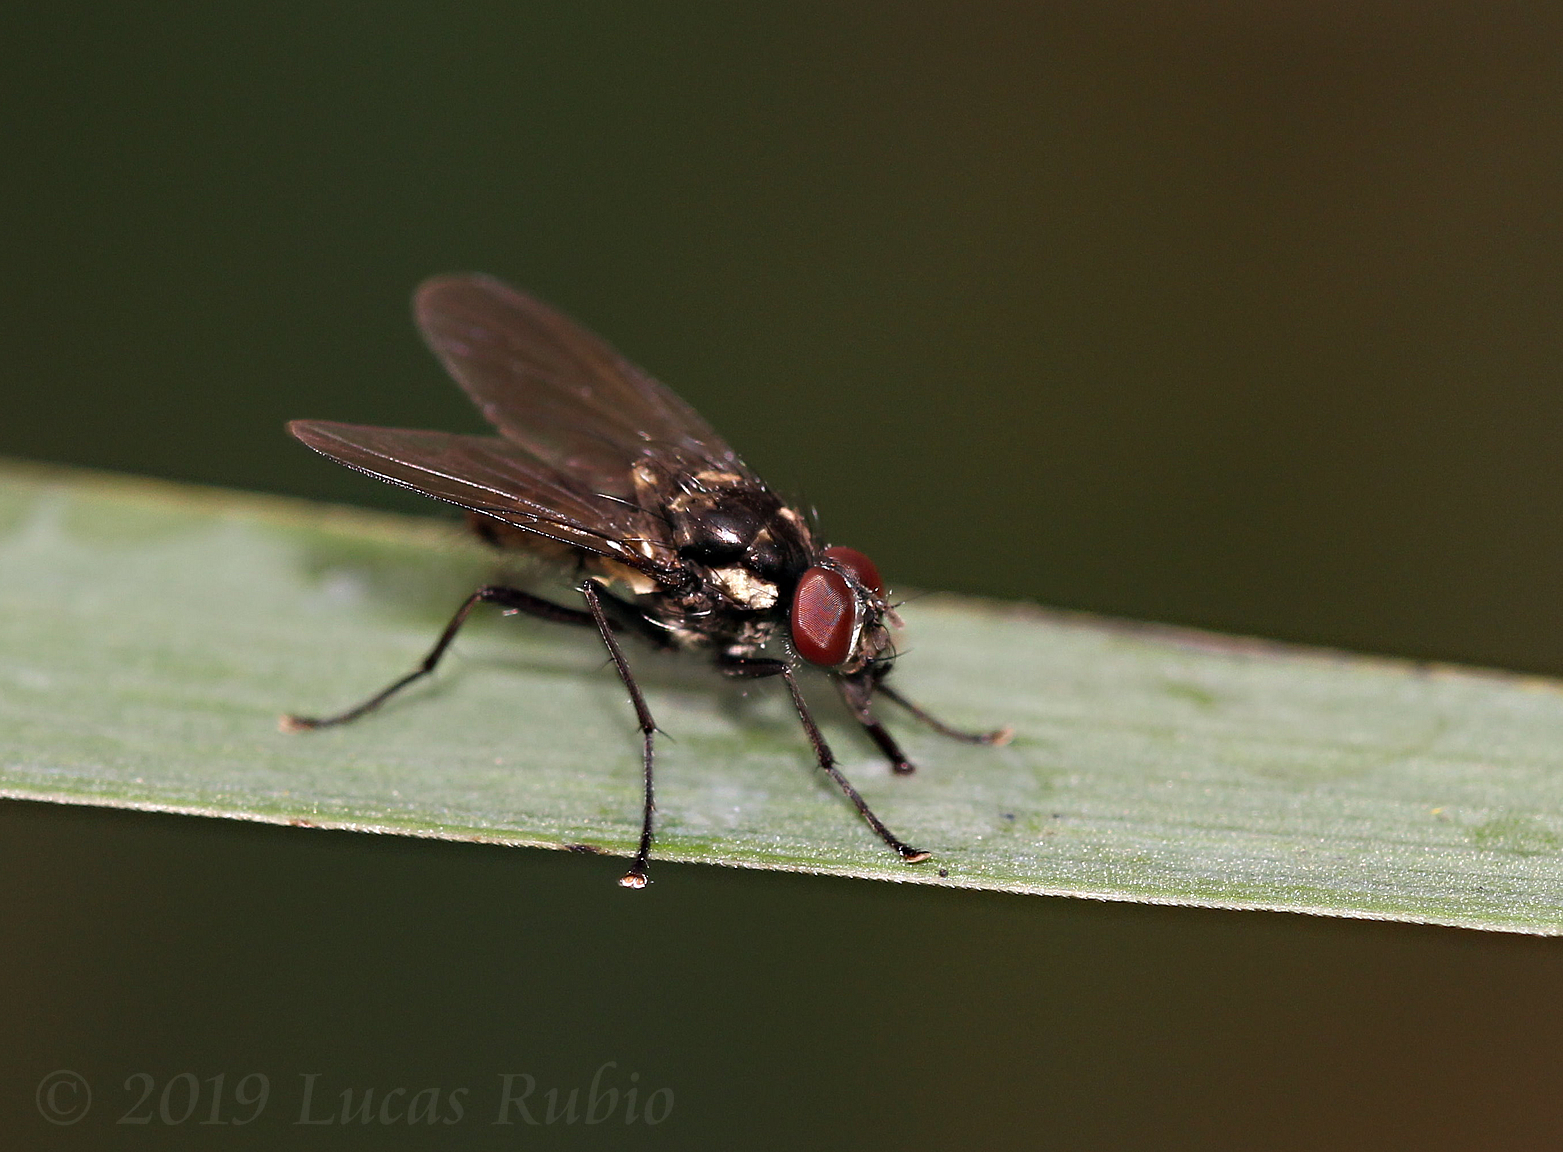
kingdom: Animalia
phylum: Arthropoda
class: Insecta
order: Diptera
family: Muscidae
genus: Limnophora
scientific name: Limnophora narona
